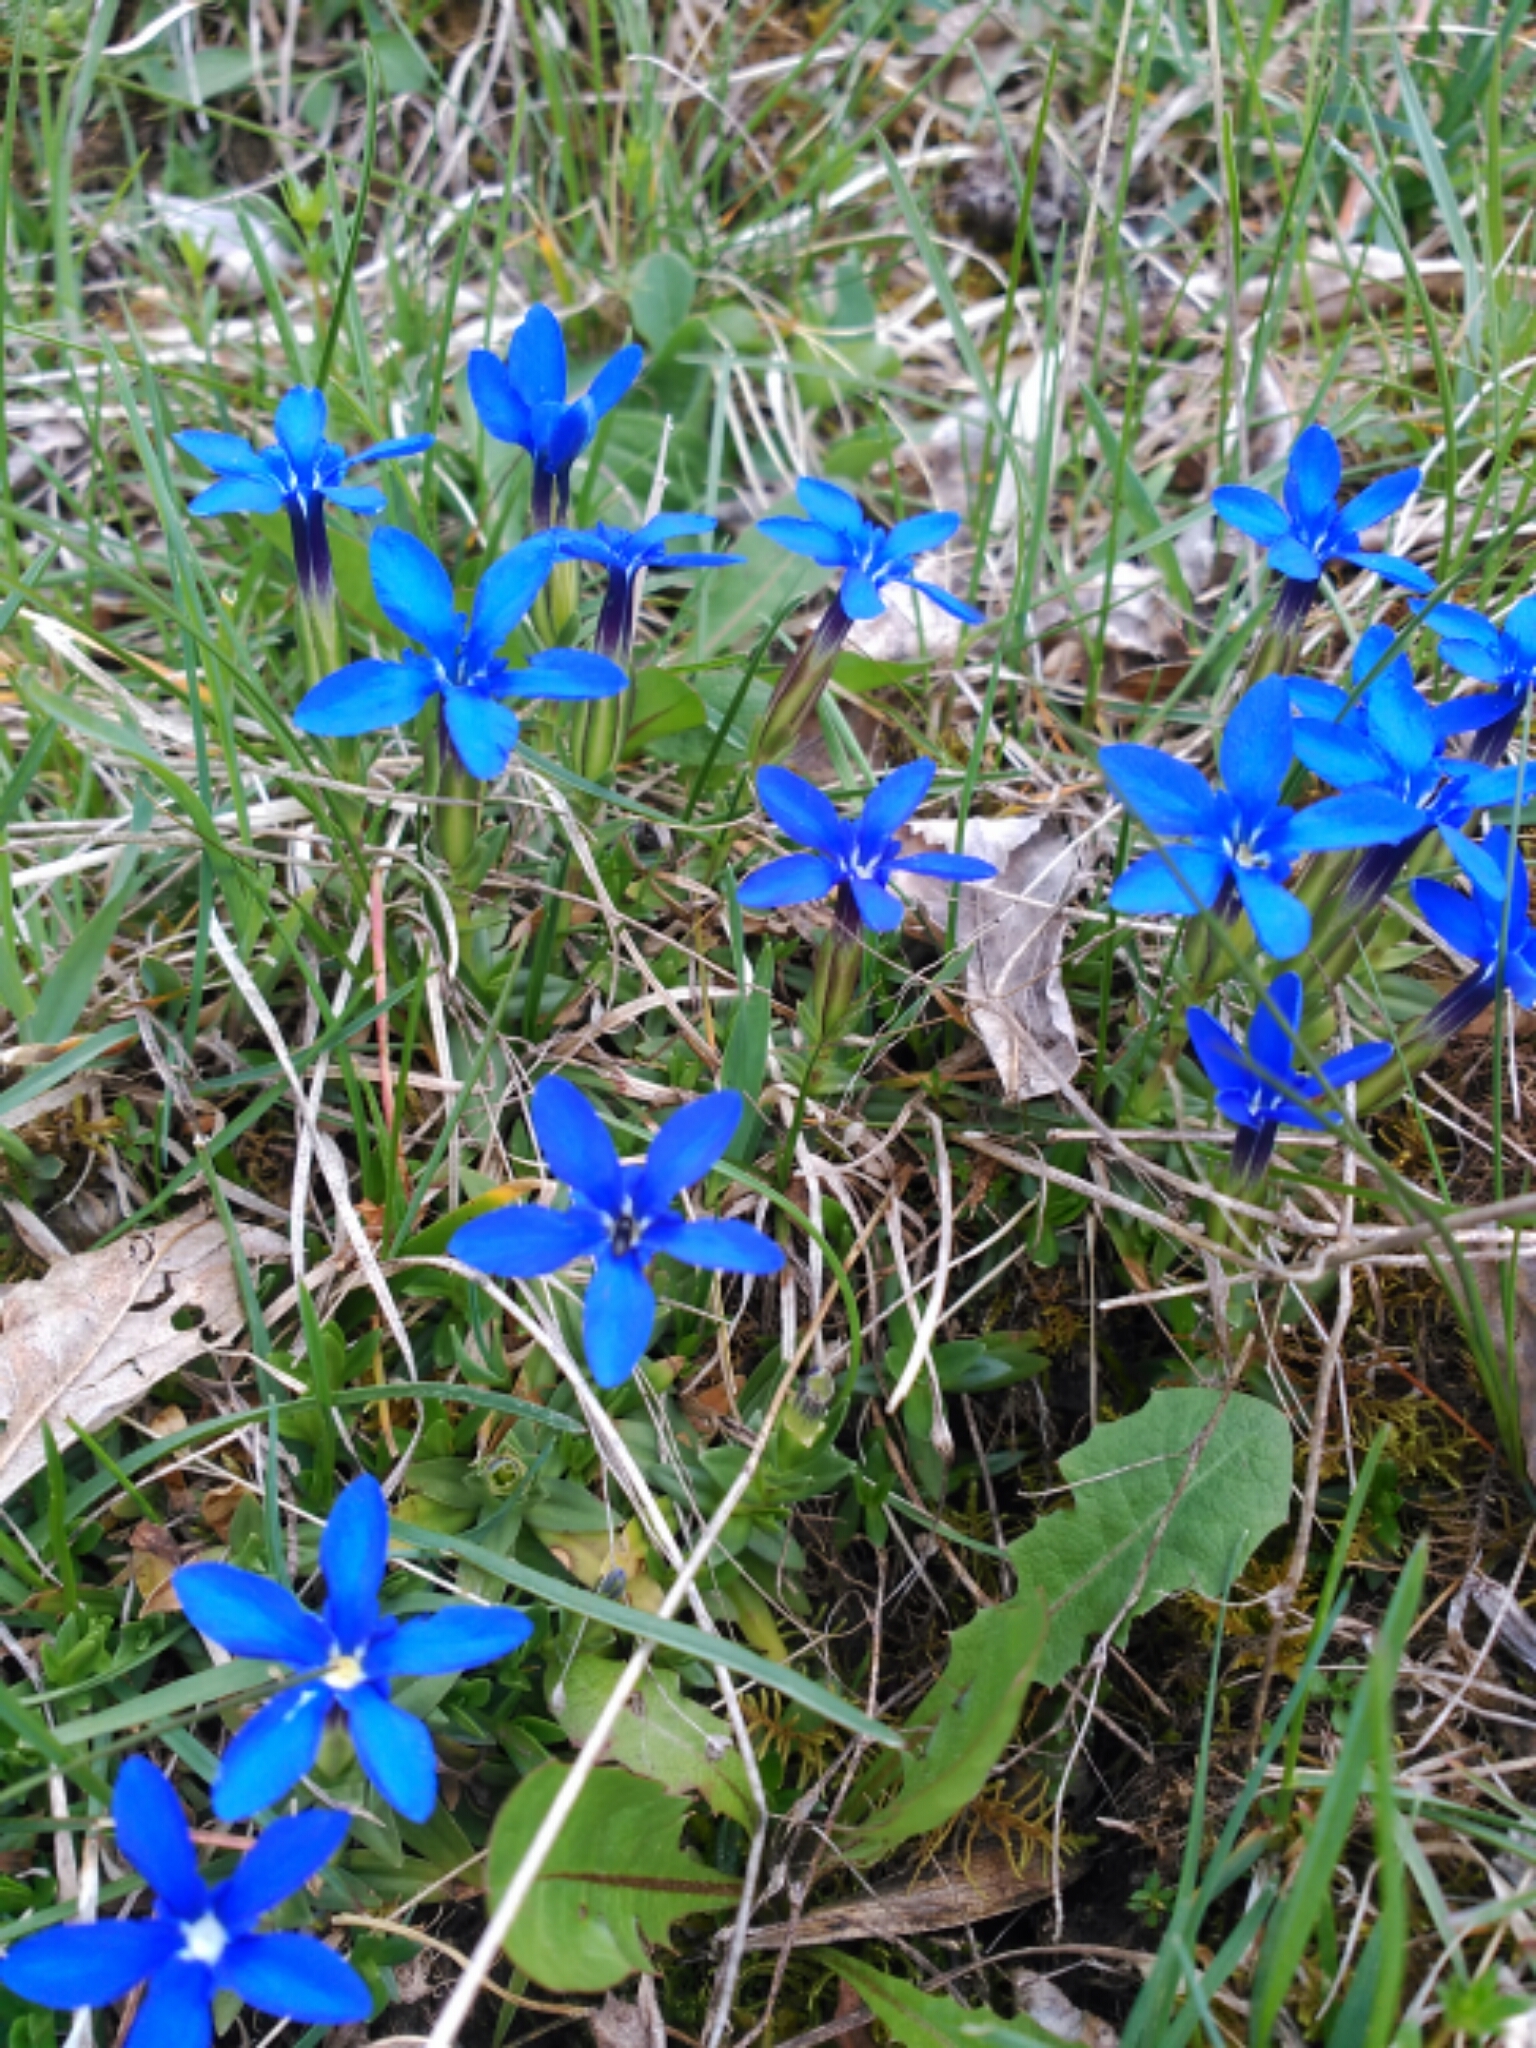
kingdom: Plantae
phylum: Tracheophyta
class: Magnoliopsida
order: Gentianales
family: Gentianaceae
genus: Gentiana
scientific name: Gentiana verna
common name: Spring gentian
